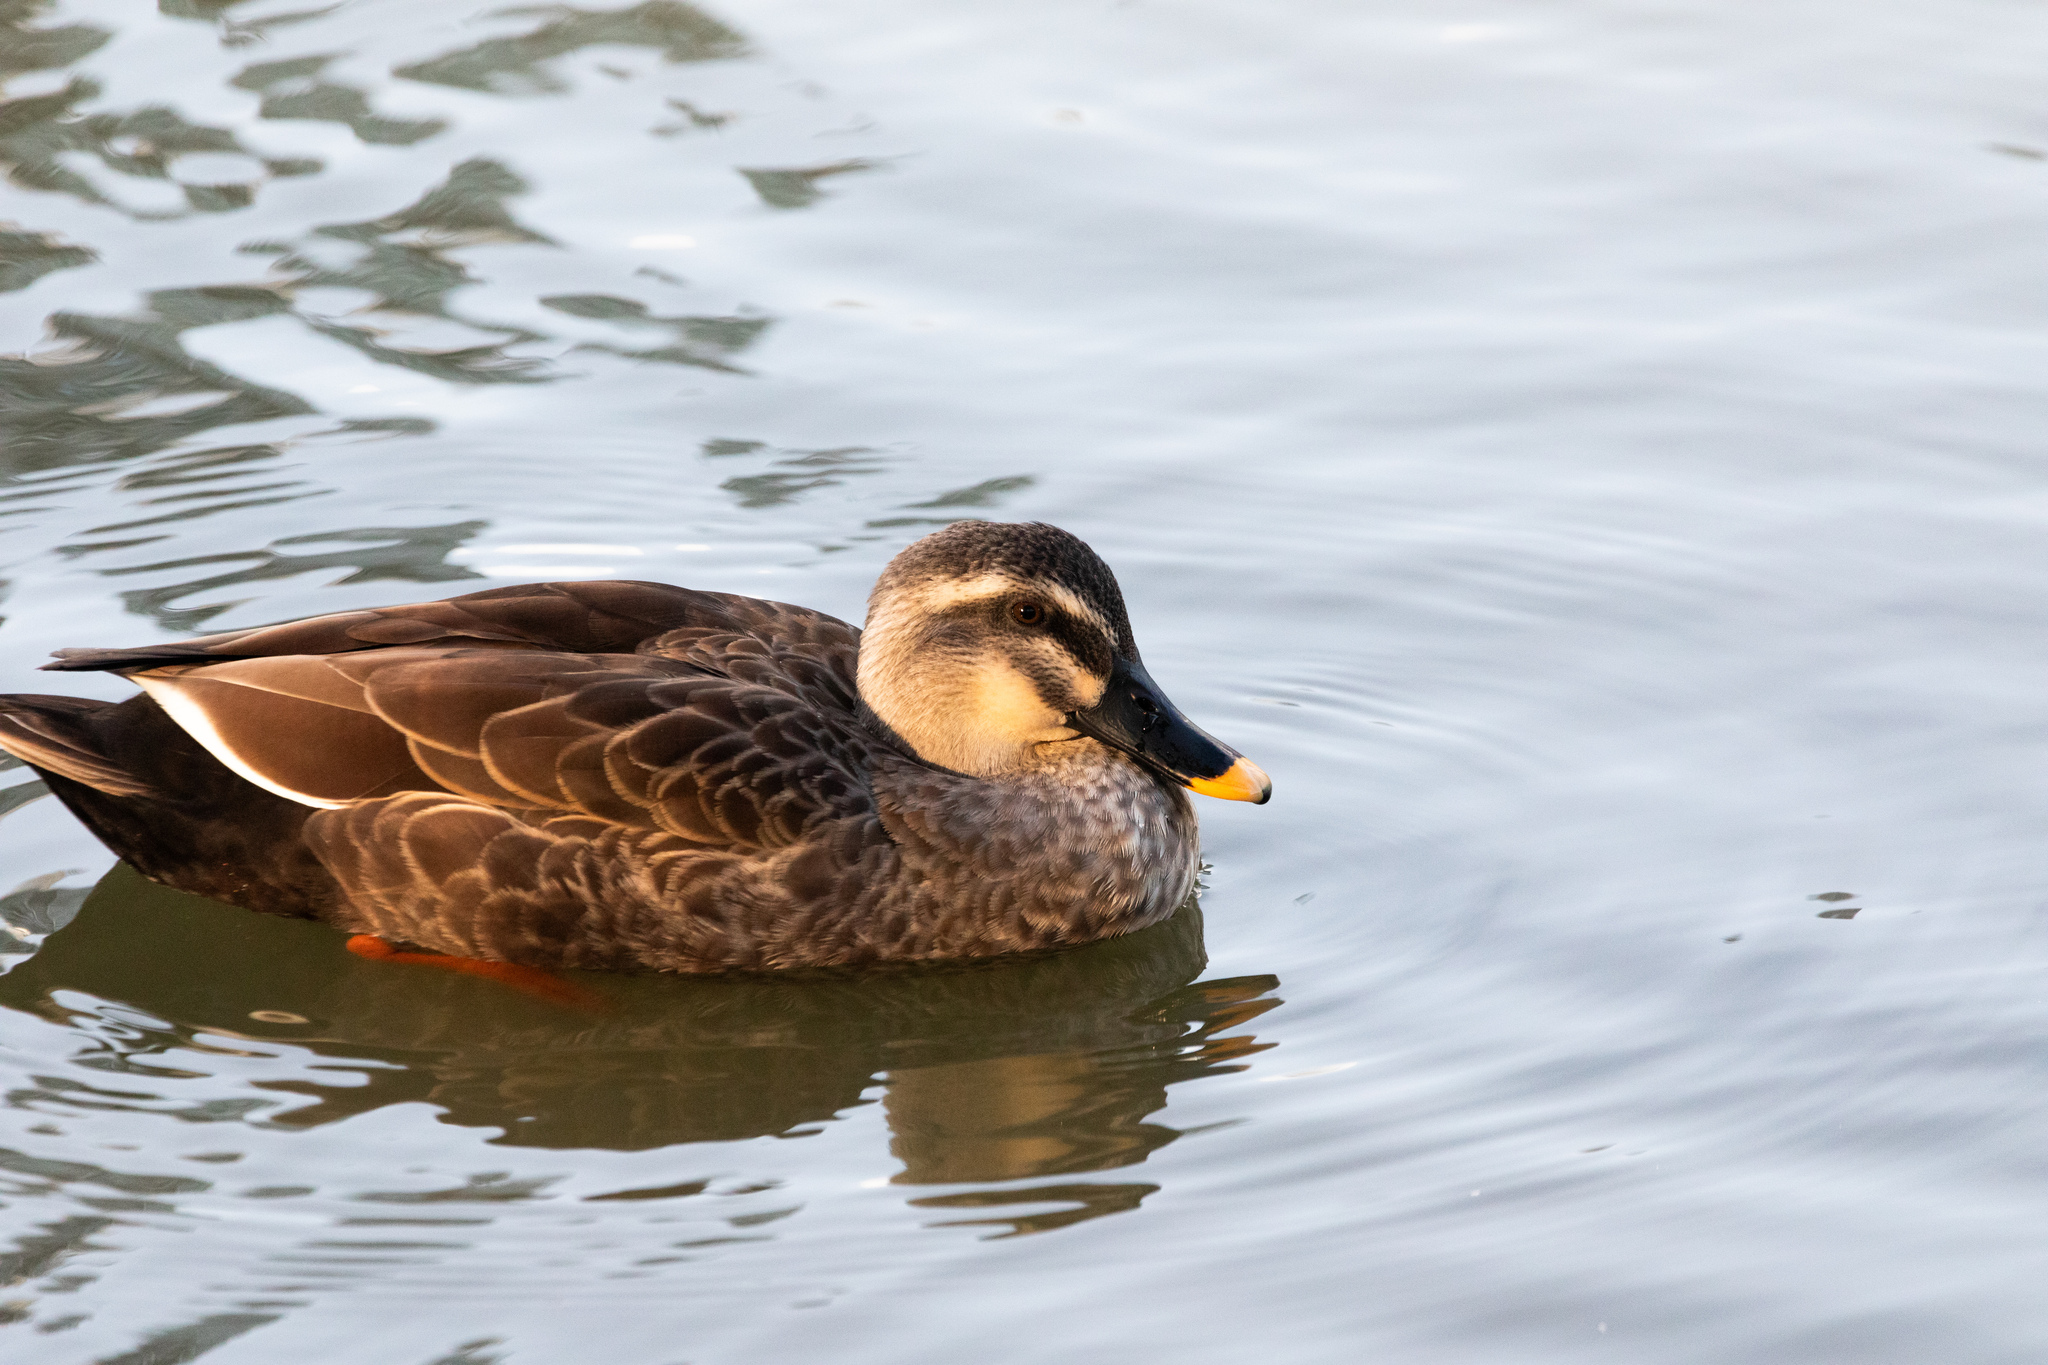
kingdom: Animalia
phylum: Chordata
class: Aves
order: Anseriformes
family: Anatidae
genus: Anas
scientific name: Anas zonorhyncha
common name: Eastern spot-billed duck
